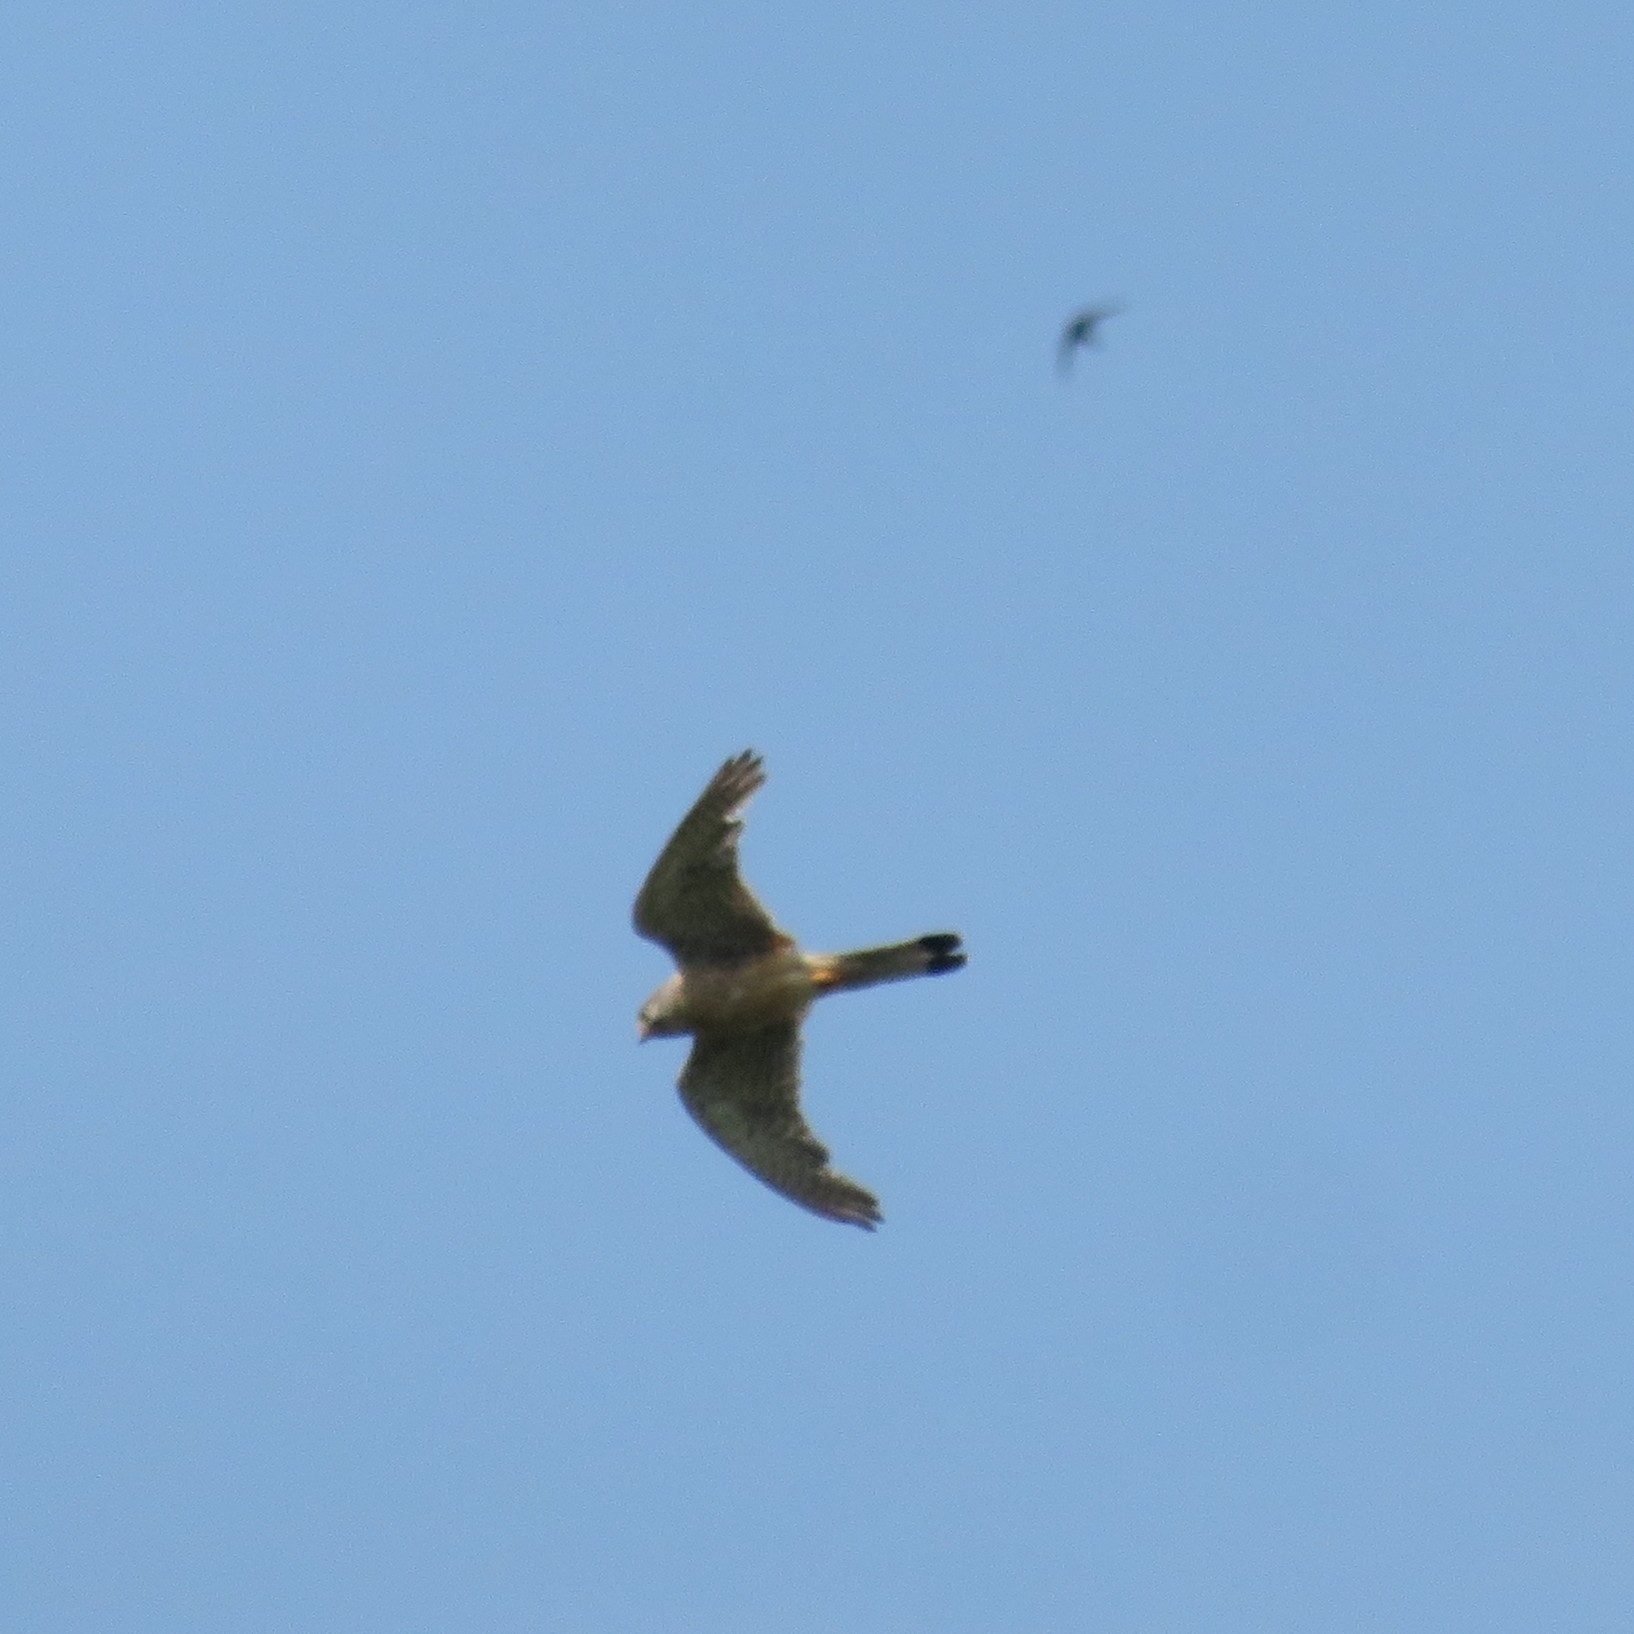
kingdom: Animalia
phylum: Chordata
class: Aves
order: Falconiformes
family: Falconidae
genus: Falco
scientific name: Falco tinnunculus
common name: Common kestrel
